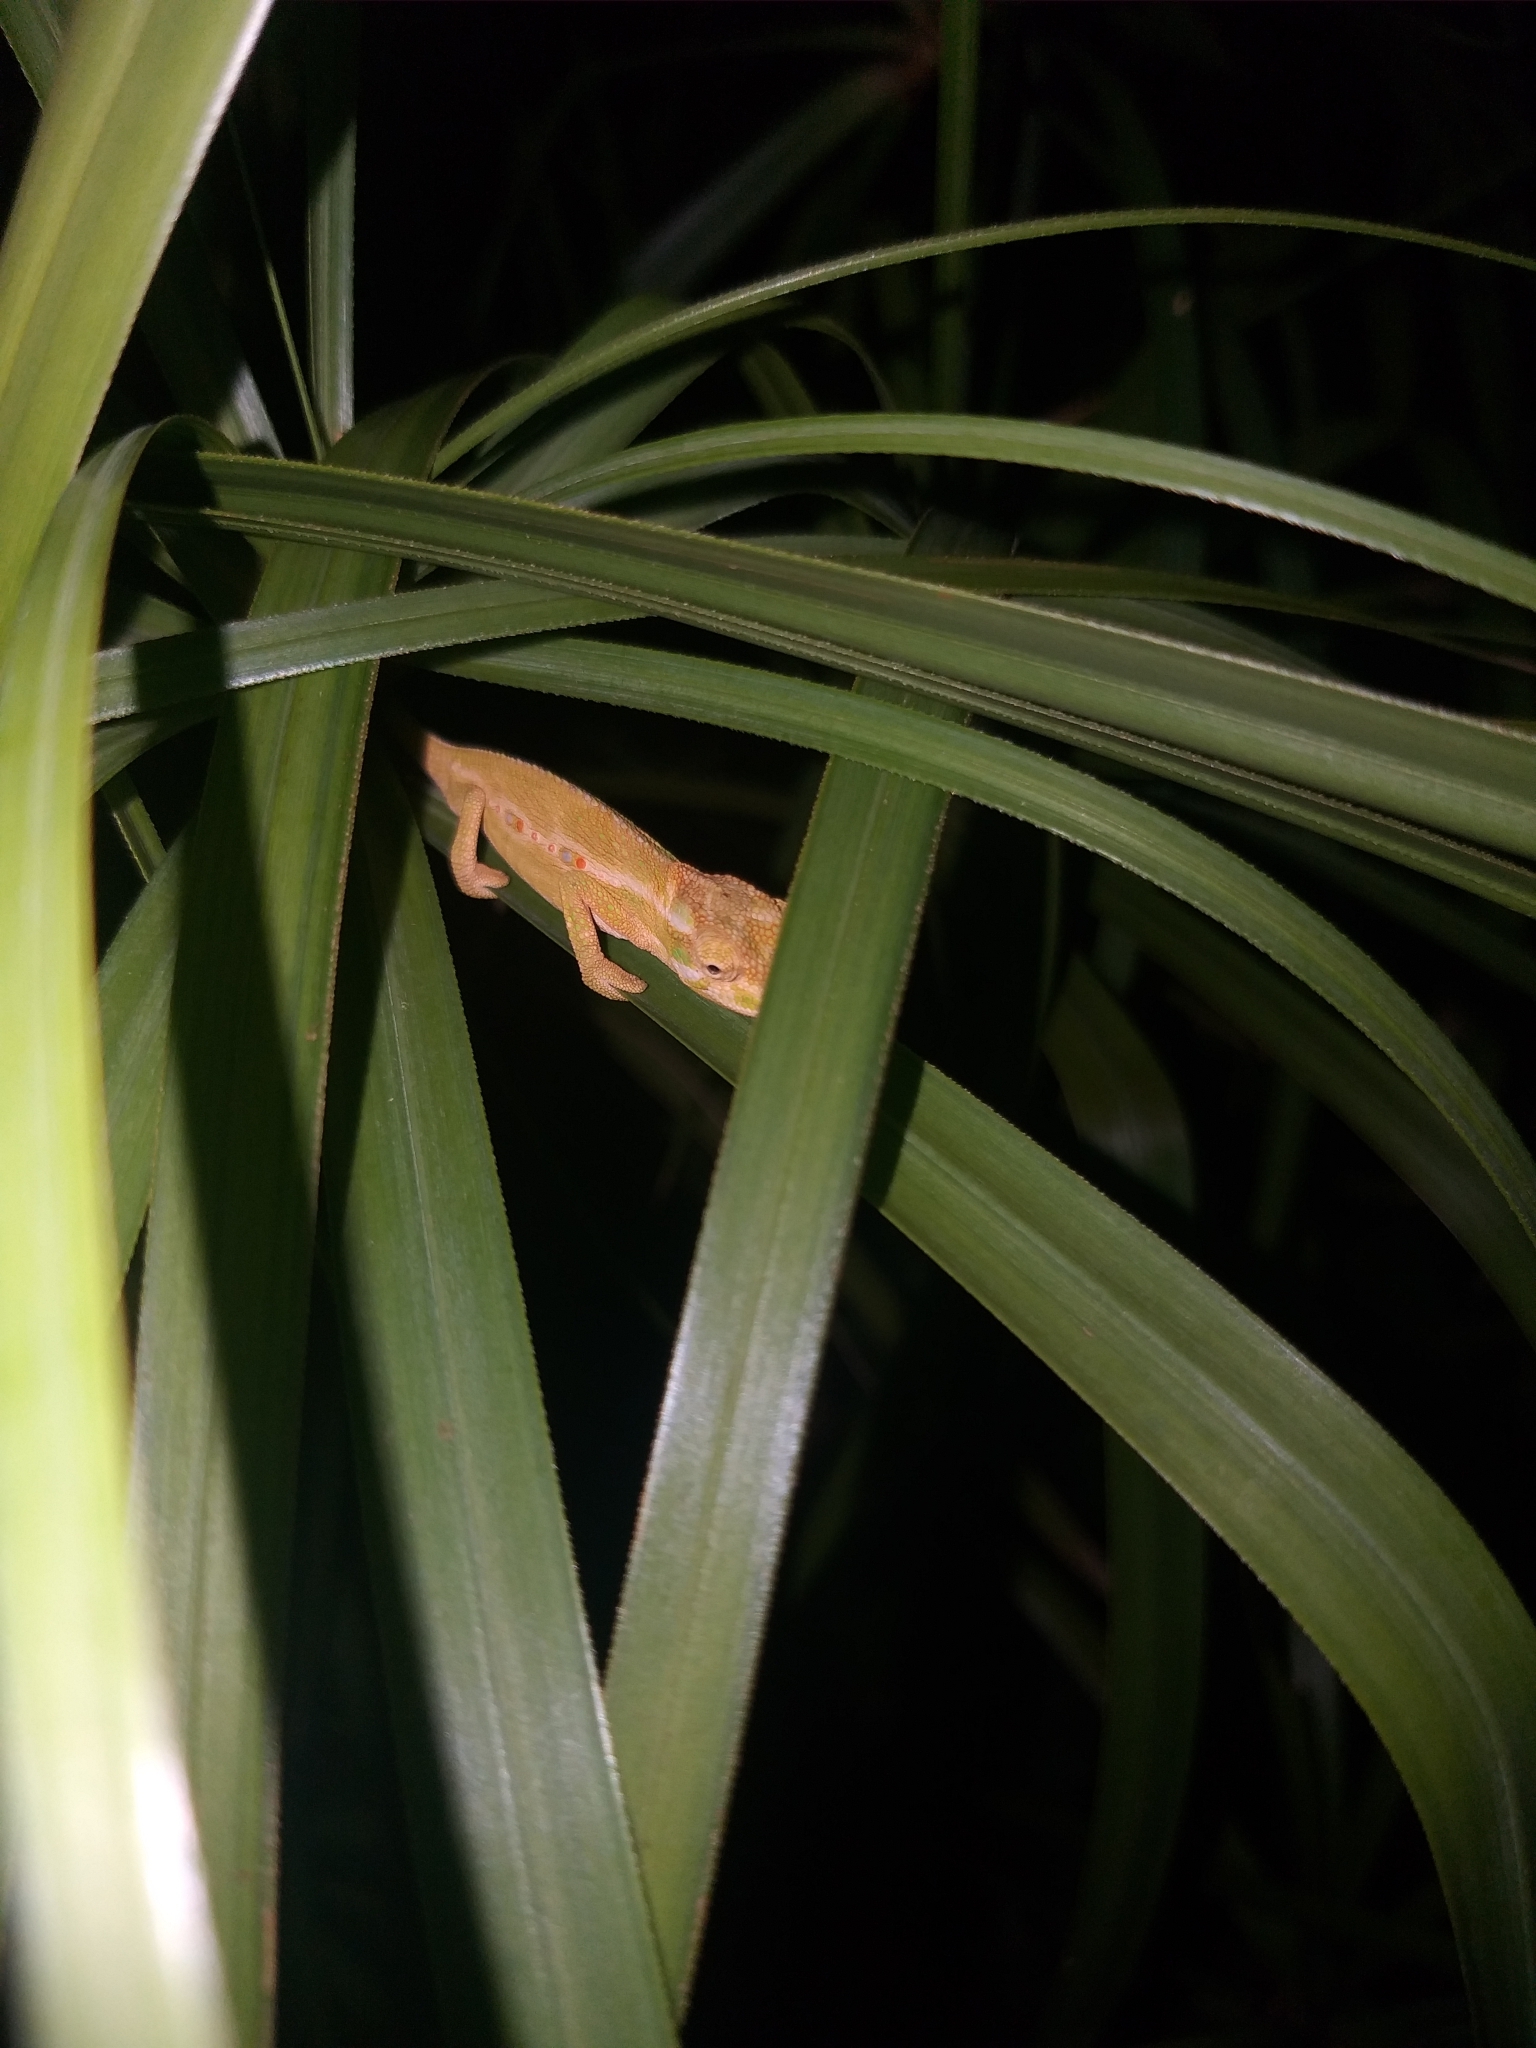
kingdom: Animalia
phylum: Chordata
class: Squamata
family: Chamaeleonidae
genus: Bradypodion
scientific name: Bradypodion pumilum
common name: Cape dwarf chameleon
